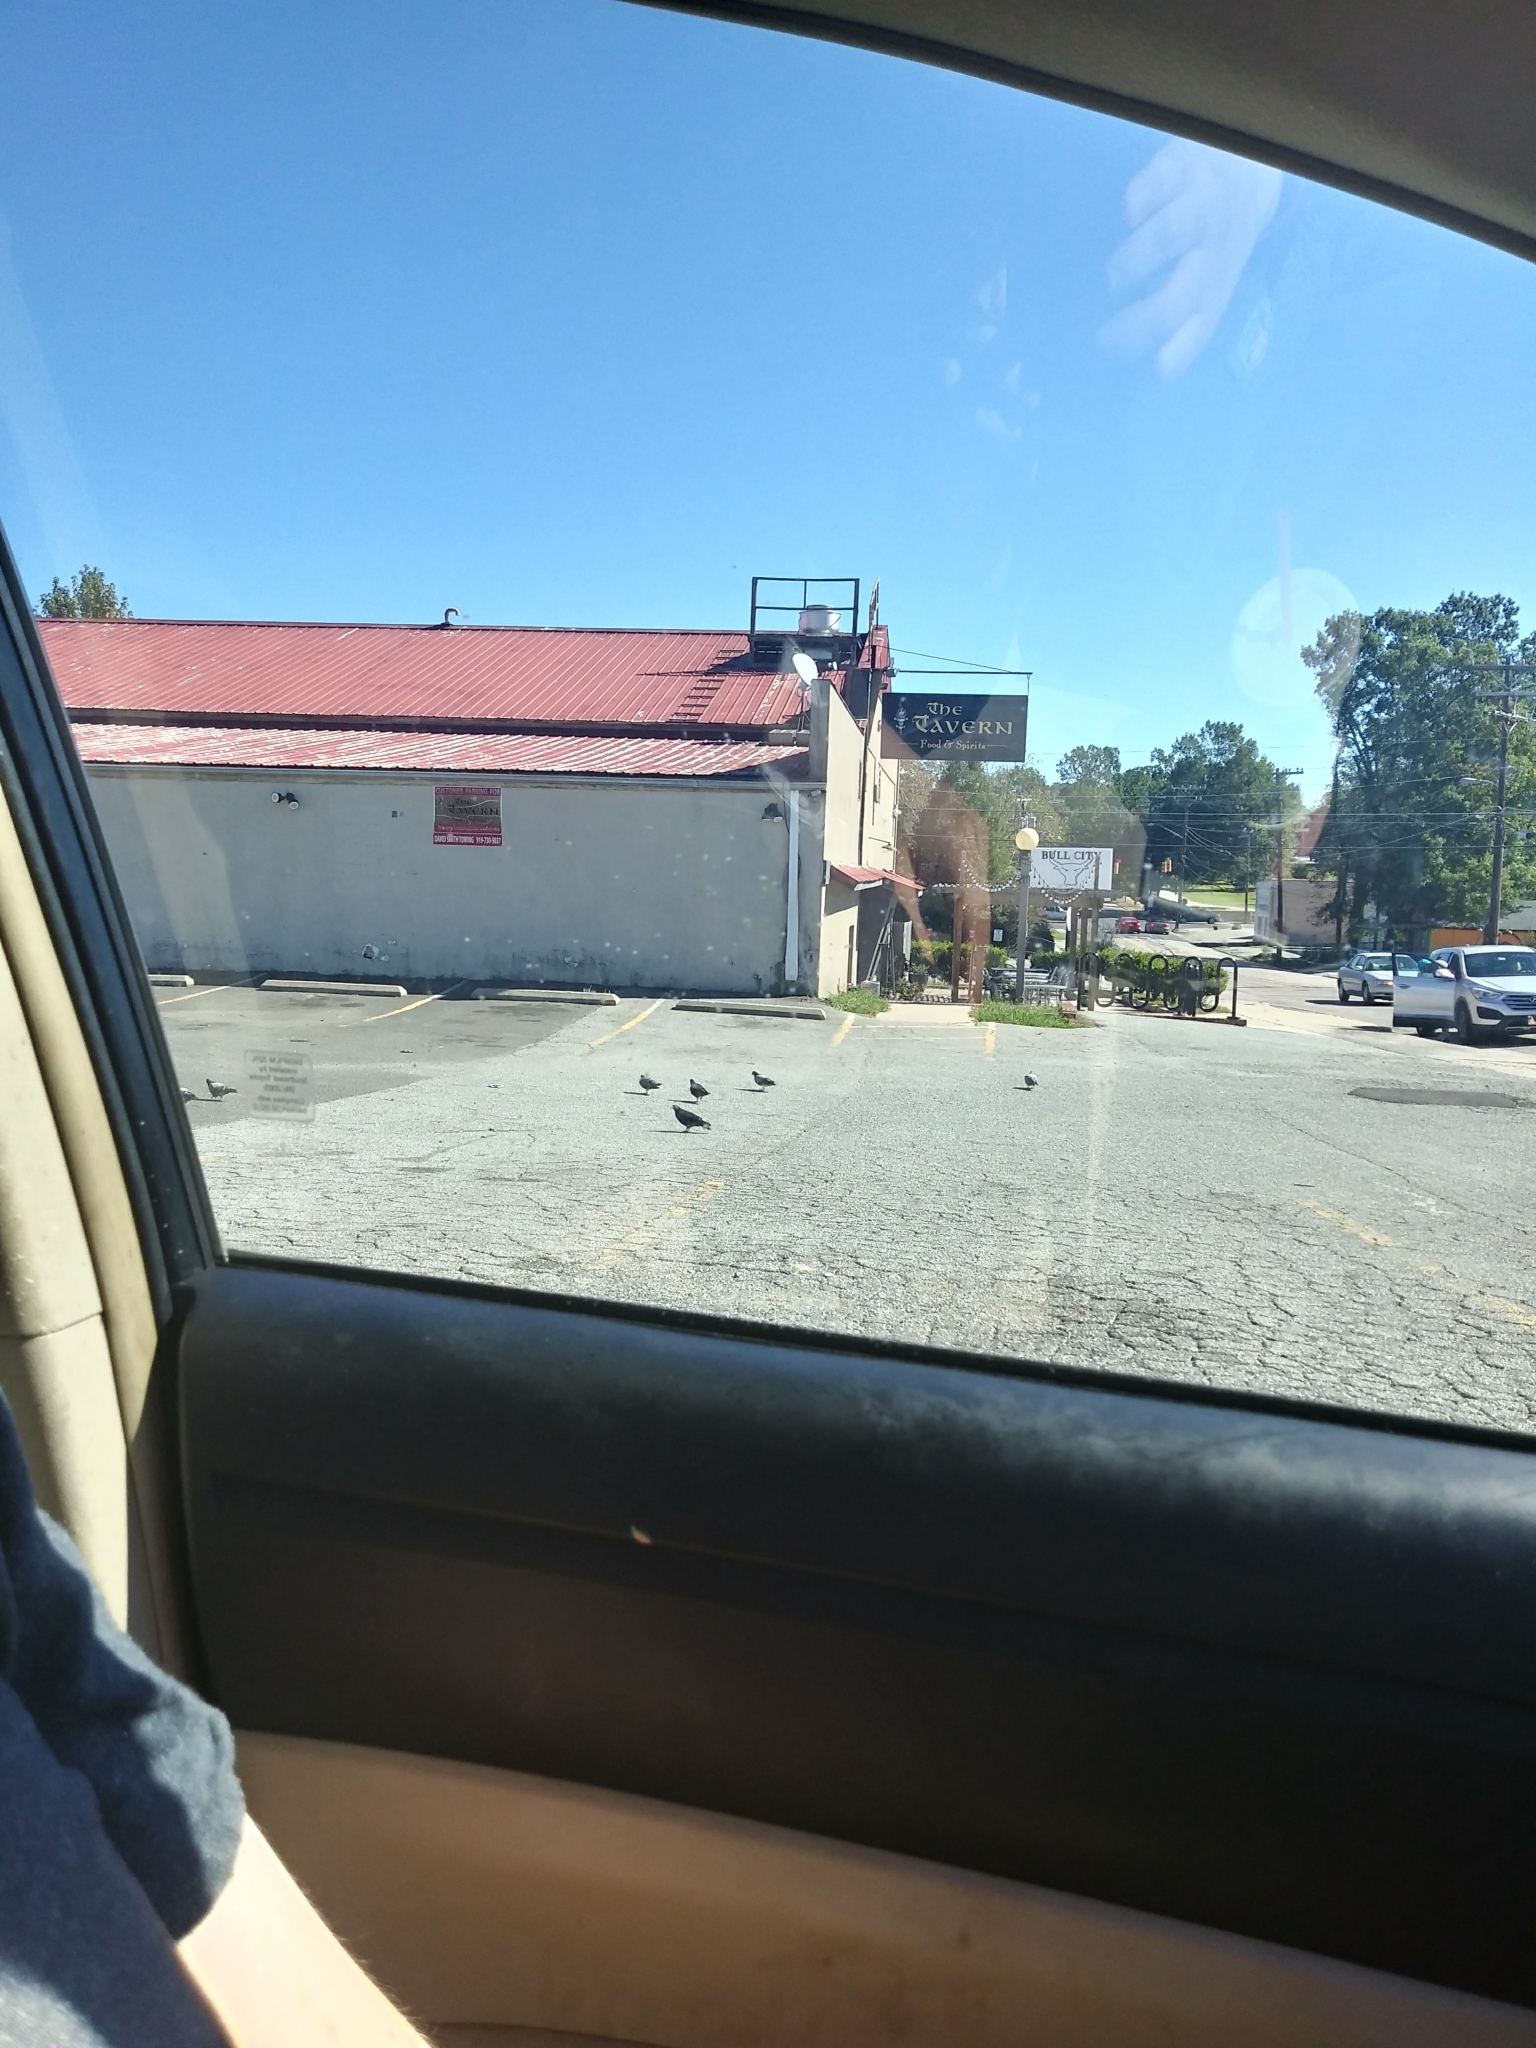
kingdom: Animalia
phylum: Chordata
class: Aves
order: Columbiformes
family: Columbidae
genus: Columba
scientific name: Columba livia
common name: Rock pigeon
